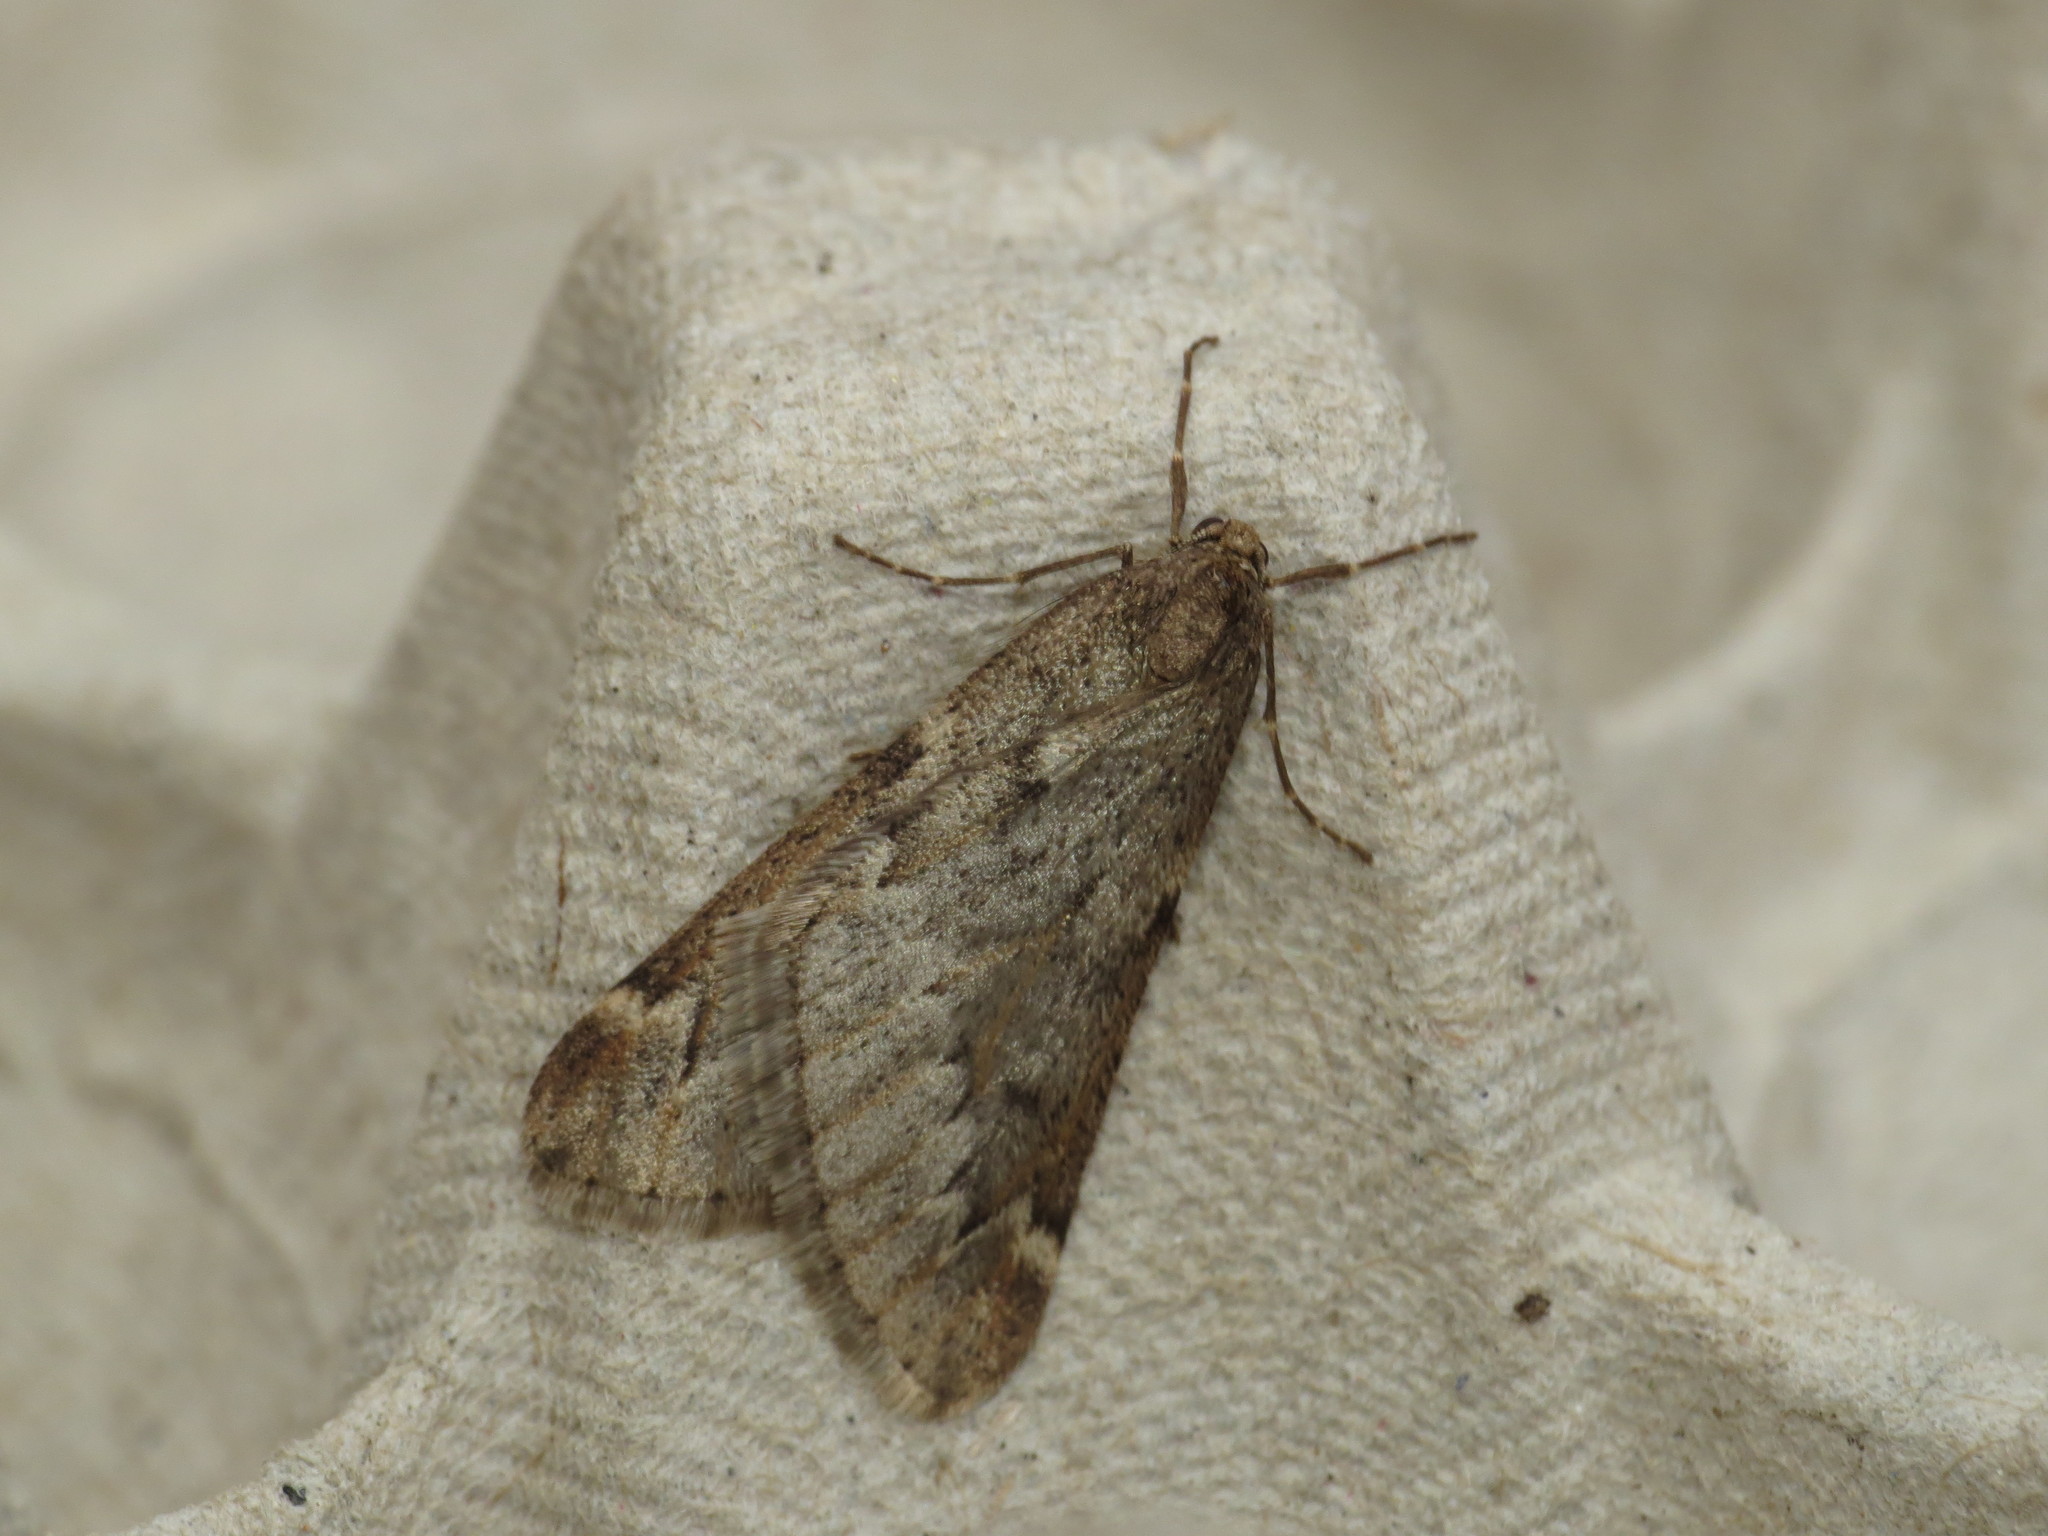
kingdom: Animalia
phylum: Arthropoda
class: Insecta
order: Lepidoptera
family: Geometridae
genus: Alsophila
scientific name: Alsophila aescularia
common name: March moth
